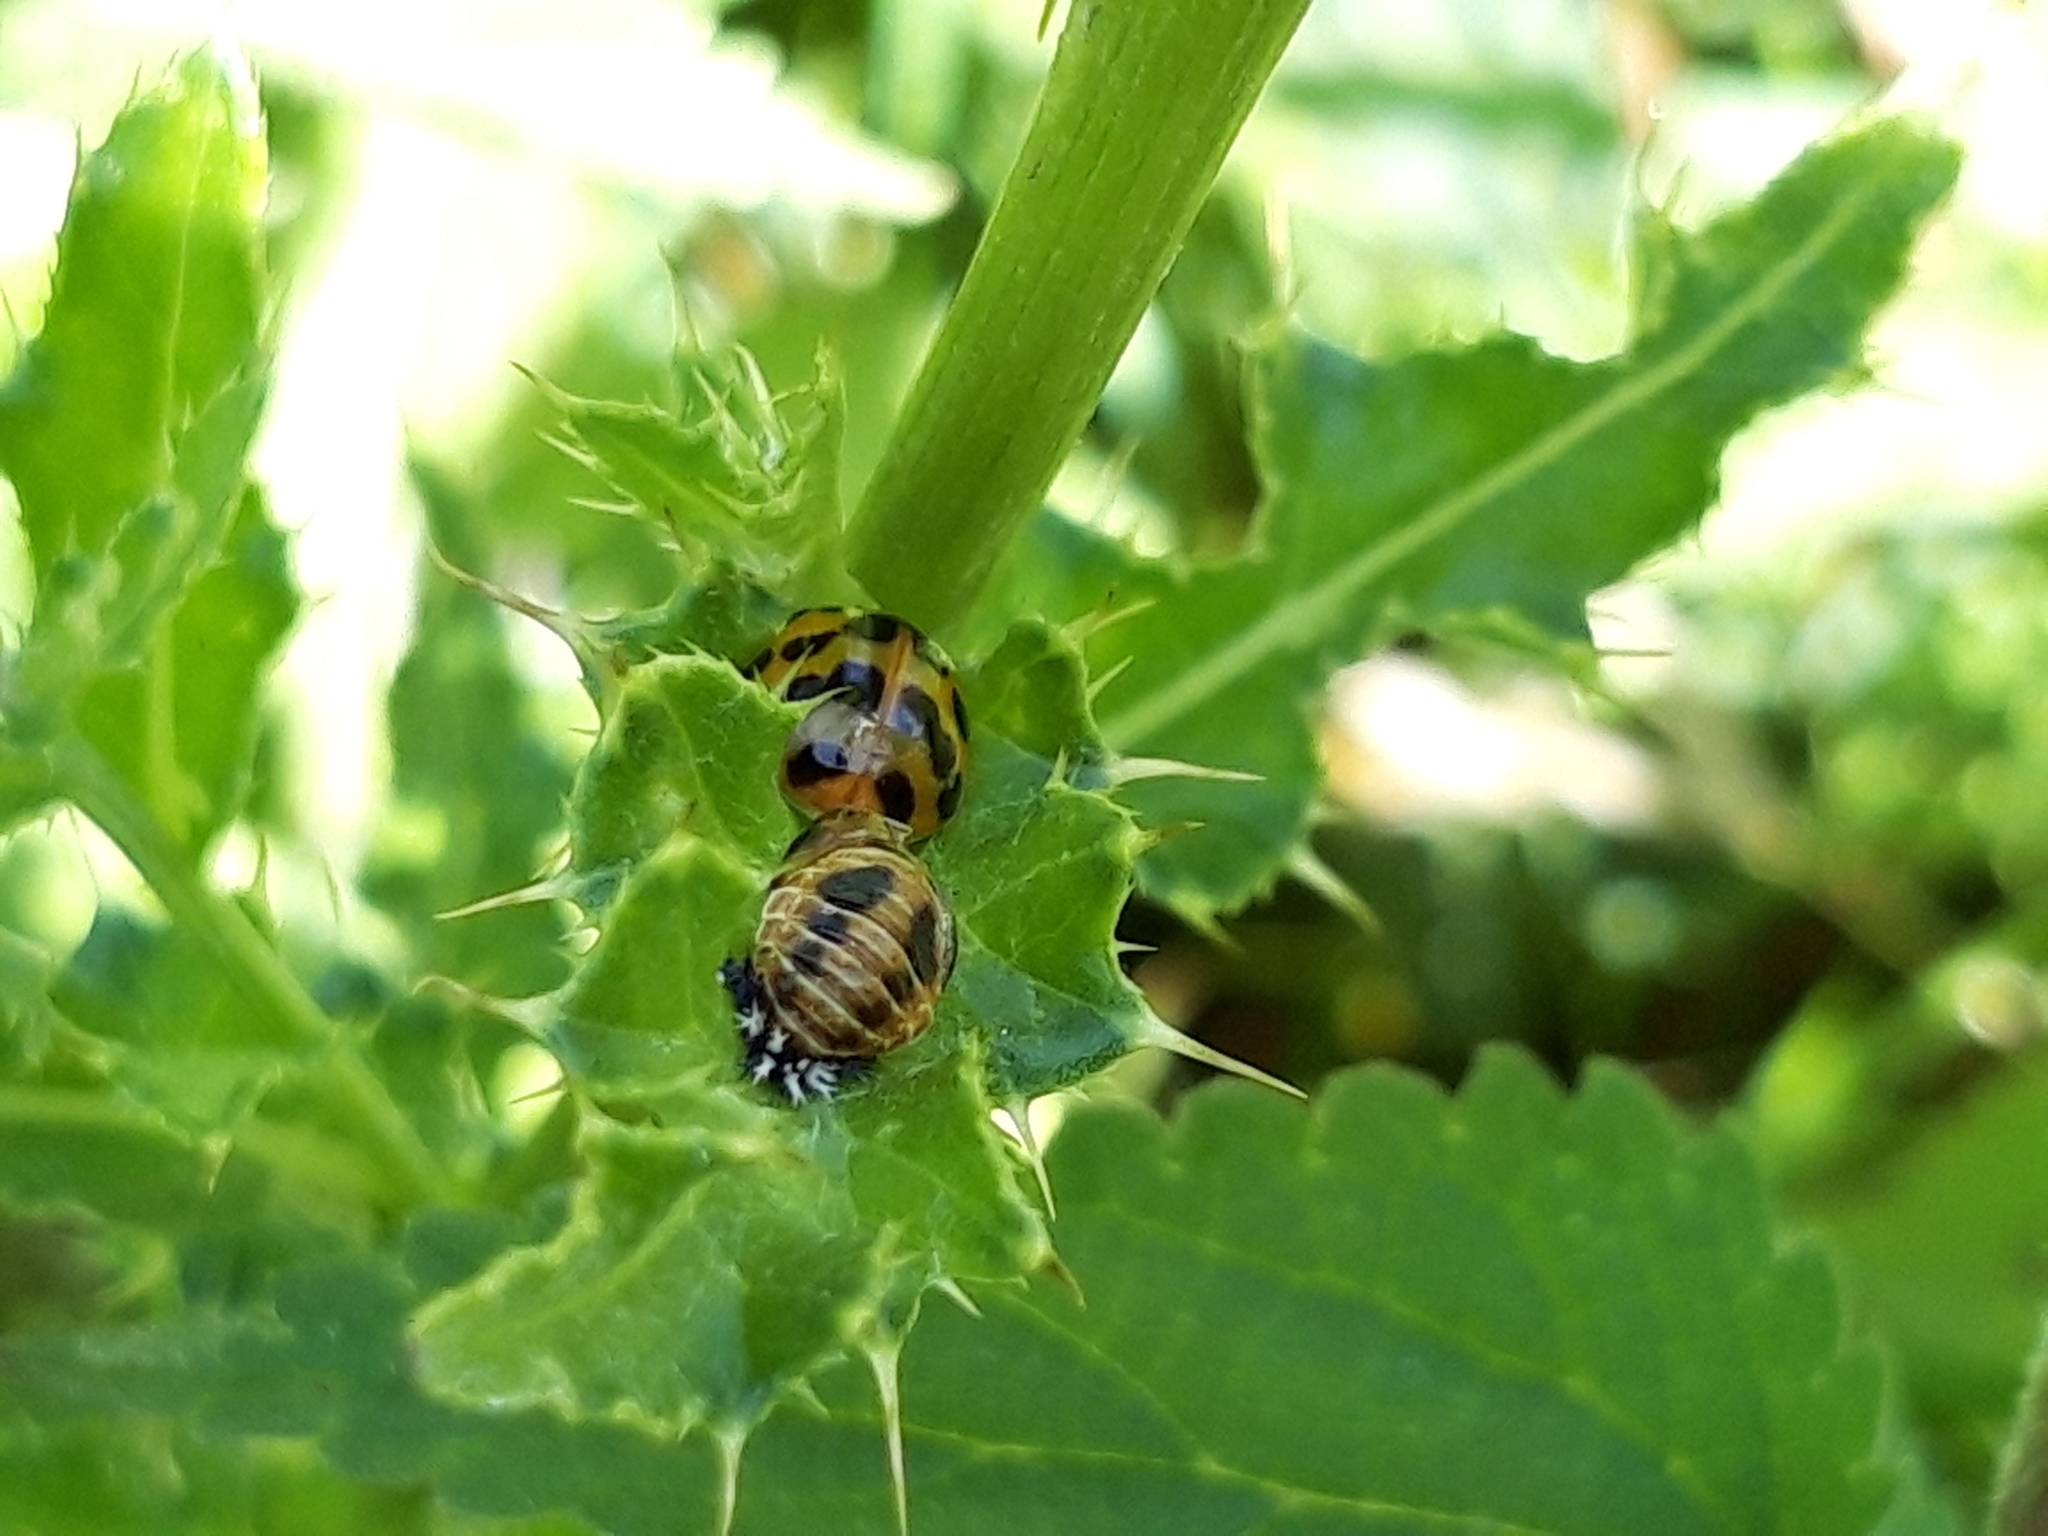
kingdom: Animalia
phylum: Arthropoda
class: Insecta
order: Coleoptera
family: Coccinellidae
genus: Harmonia
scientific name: Harmonia axyridis
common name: Harlequin ladybird
